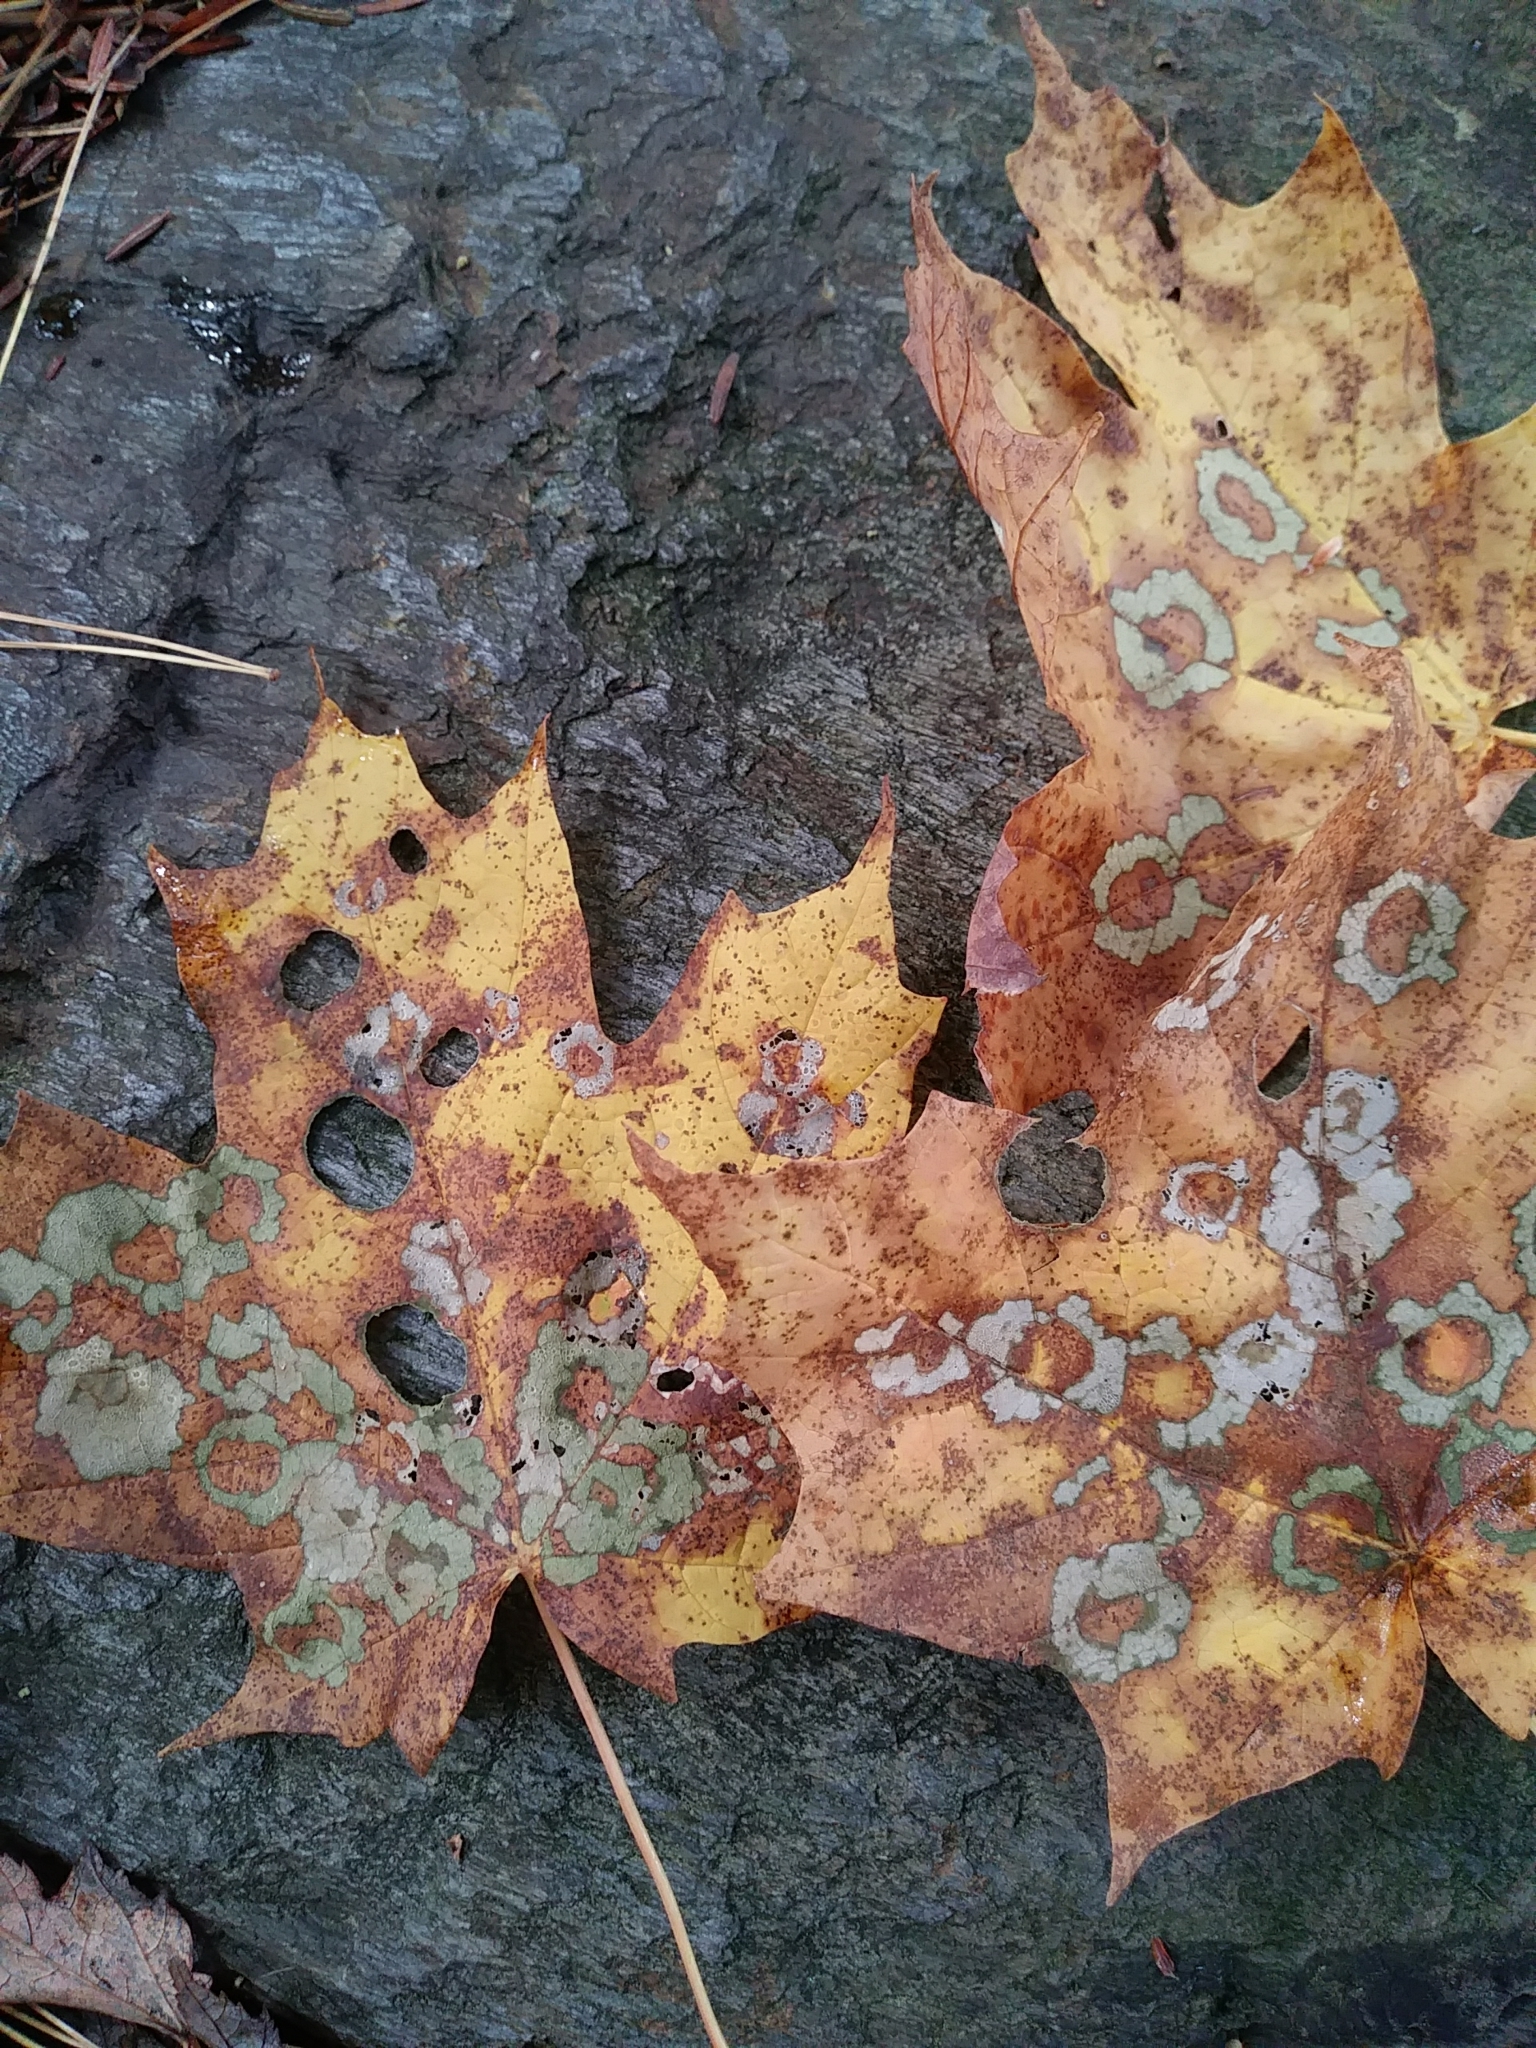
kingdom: Animalia
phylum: Arthropoda
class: Insecta
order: Lepidoptera
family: Incurvariidae
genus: Paraclemensia
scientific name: Paraclemensia acerifoliella
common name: Maple leafcutter
